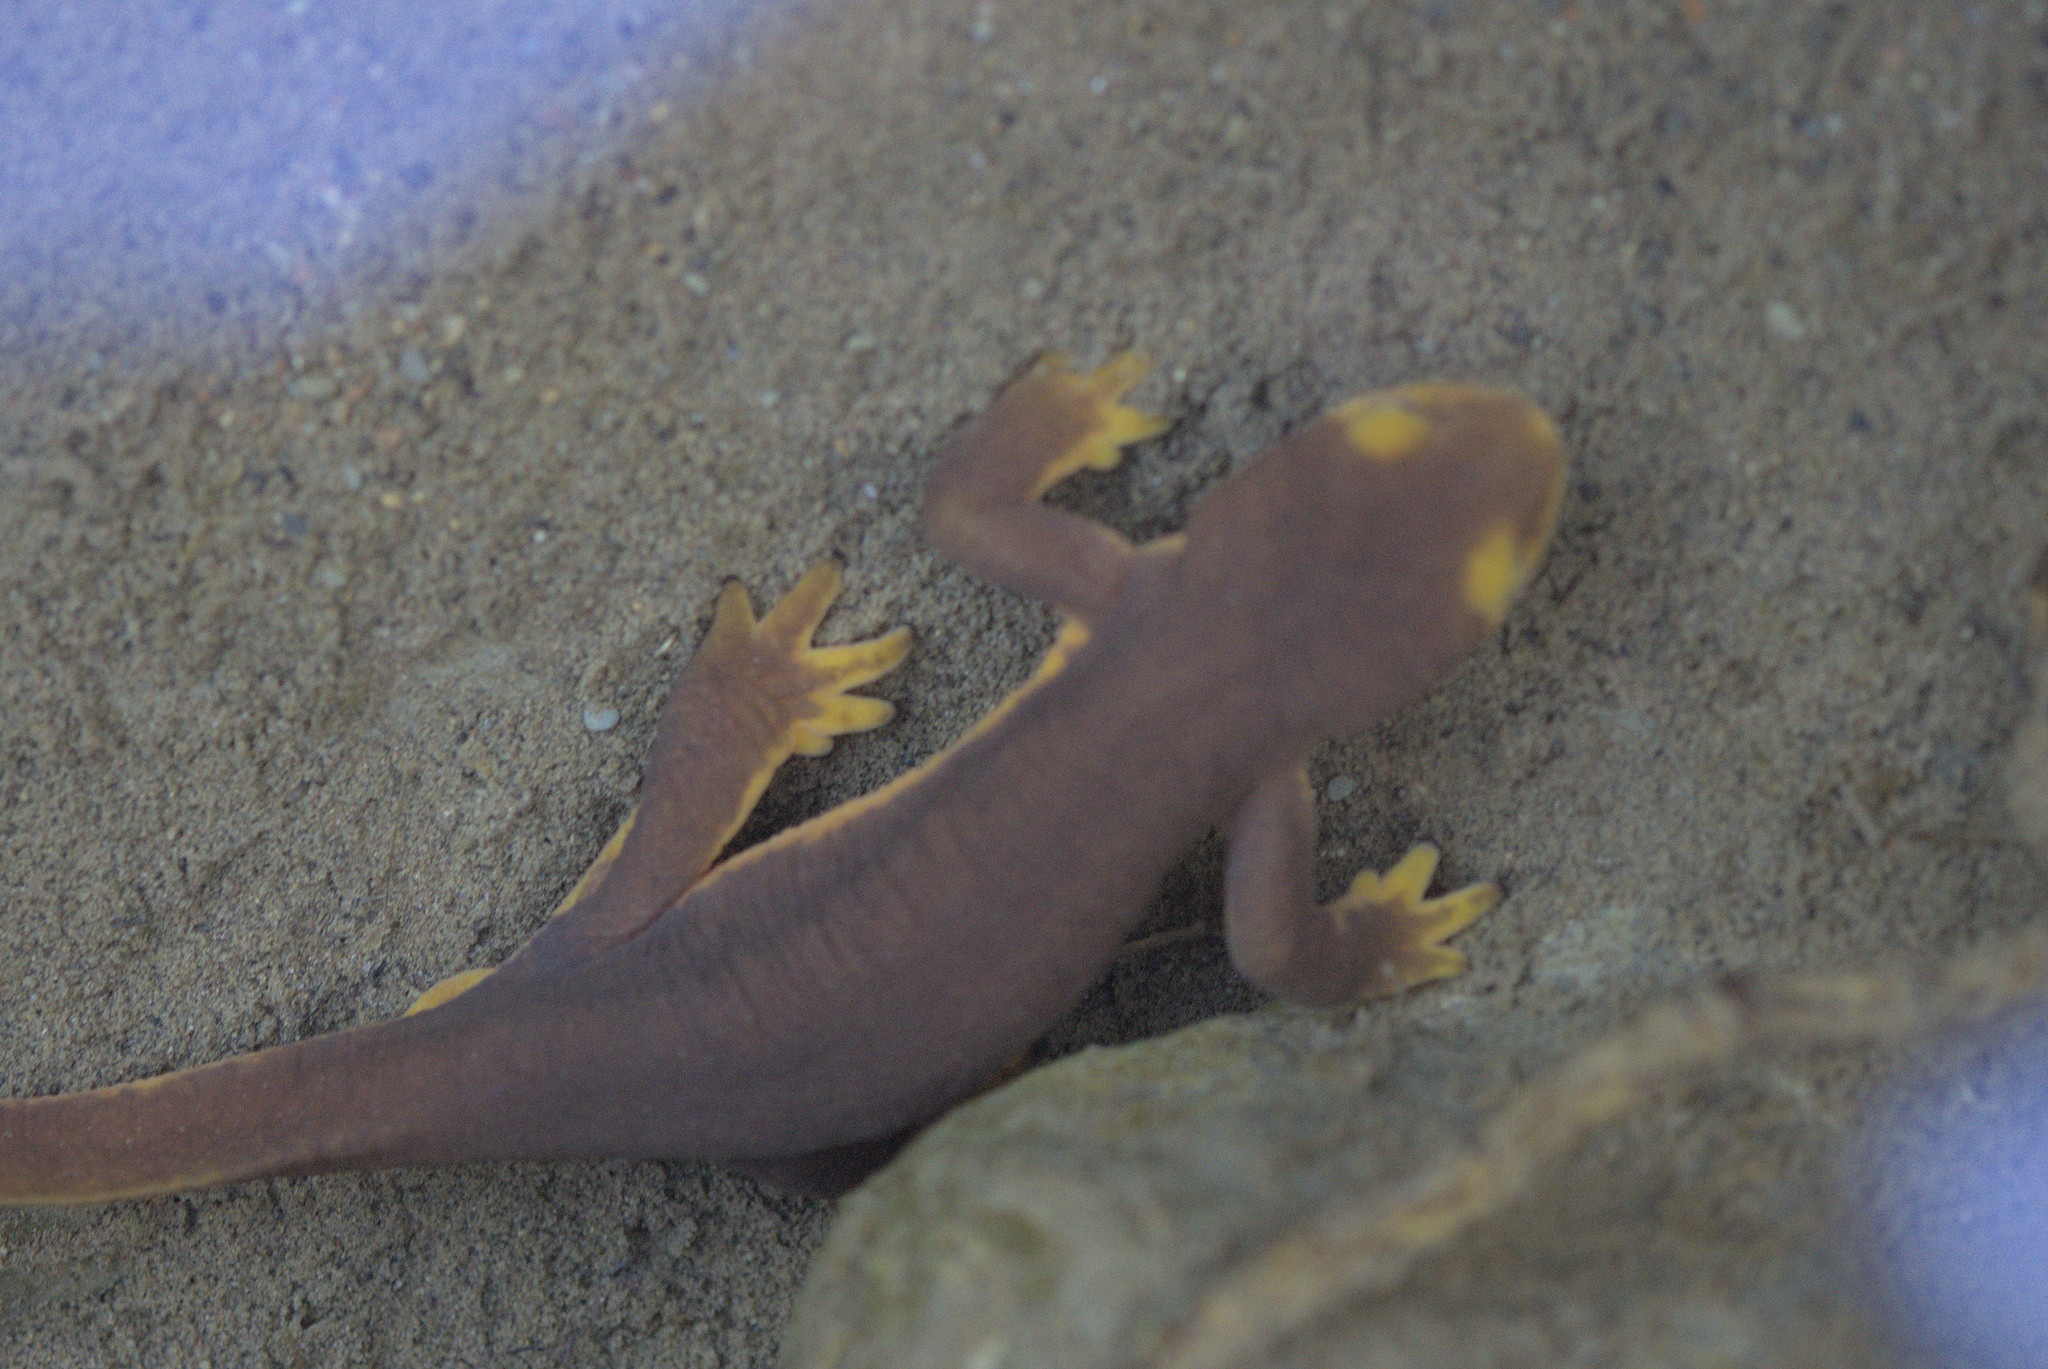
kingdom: Animalia
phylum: Chordata
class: Amphibia
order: Caudata
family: Salamandridae
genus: Taricha
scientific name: Taricha torosa
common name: California newt
